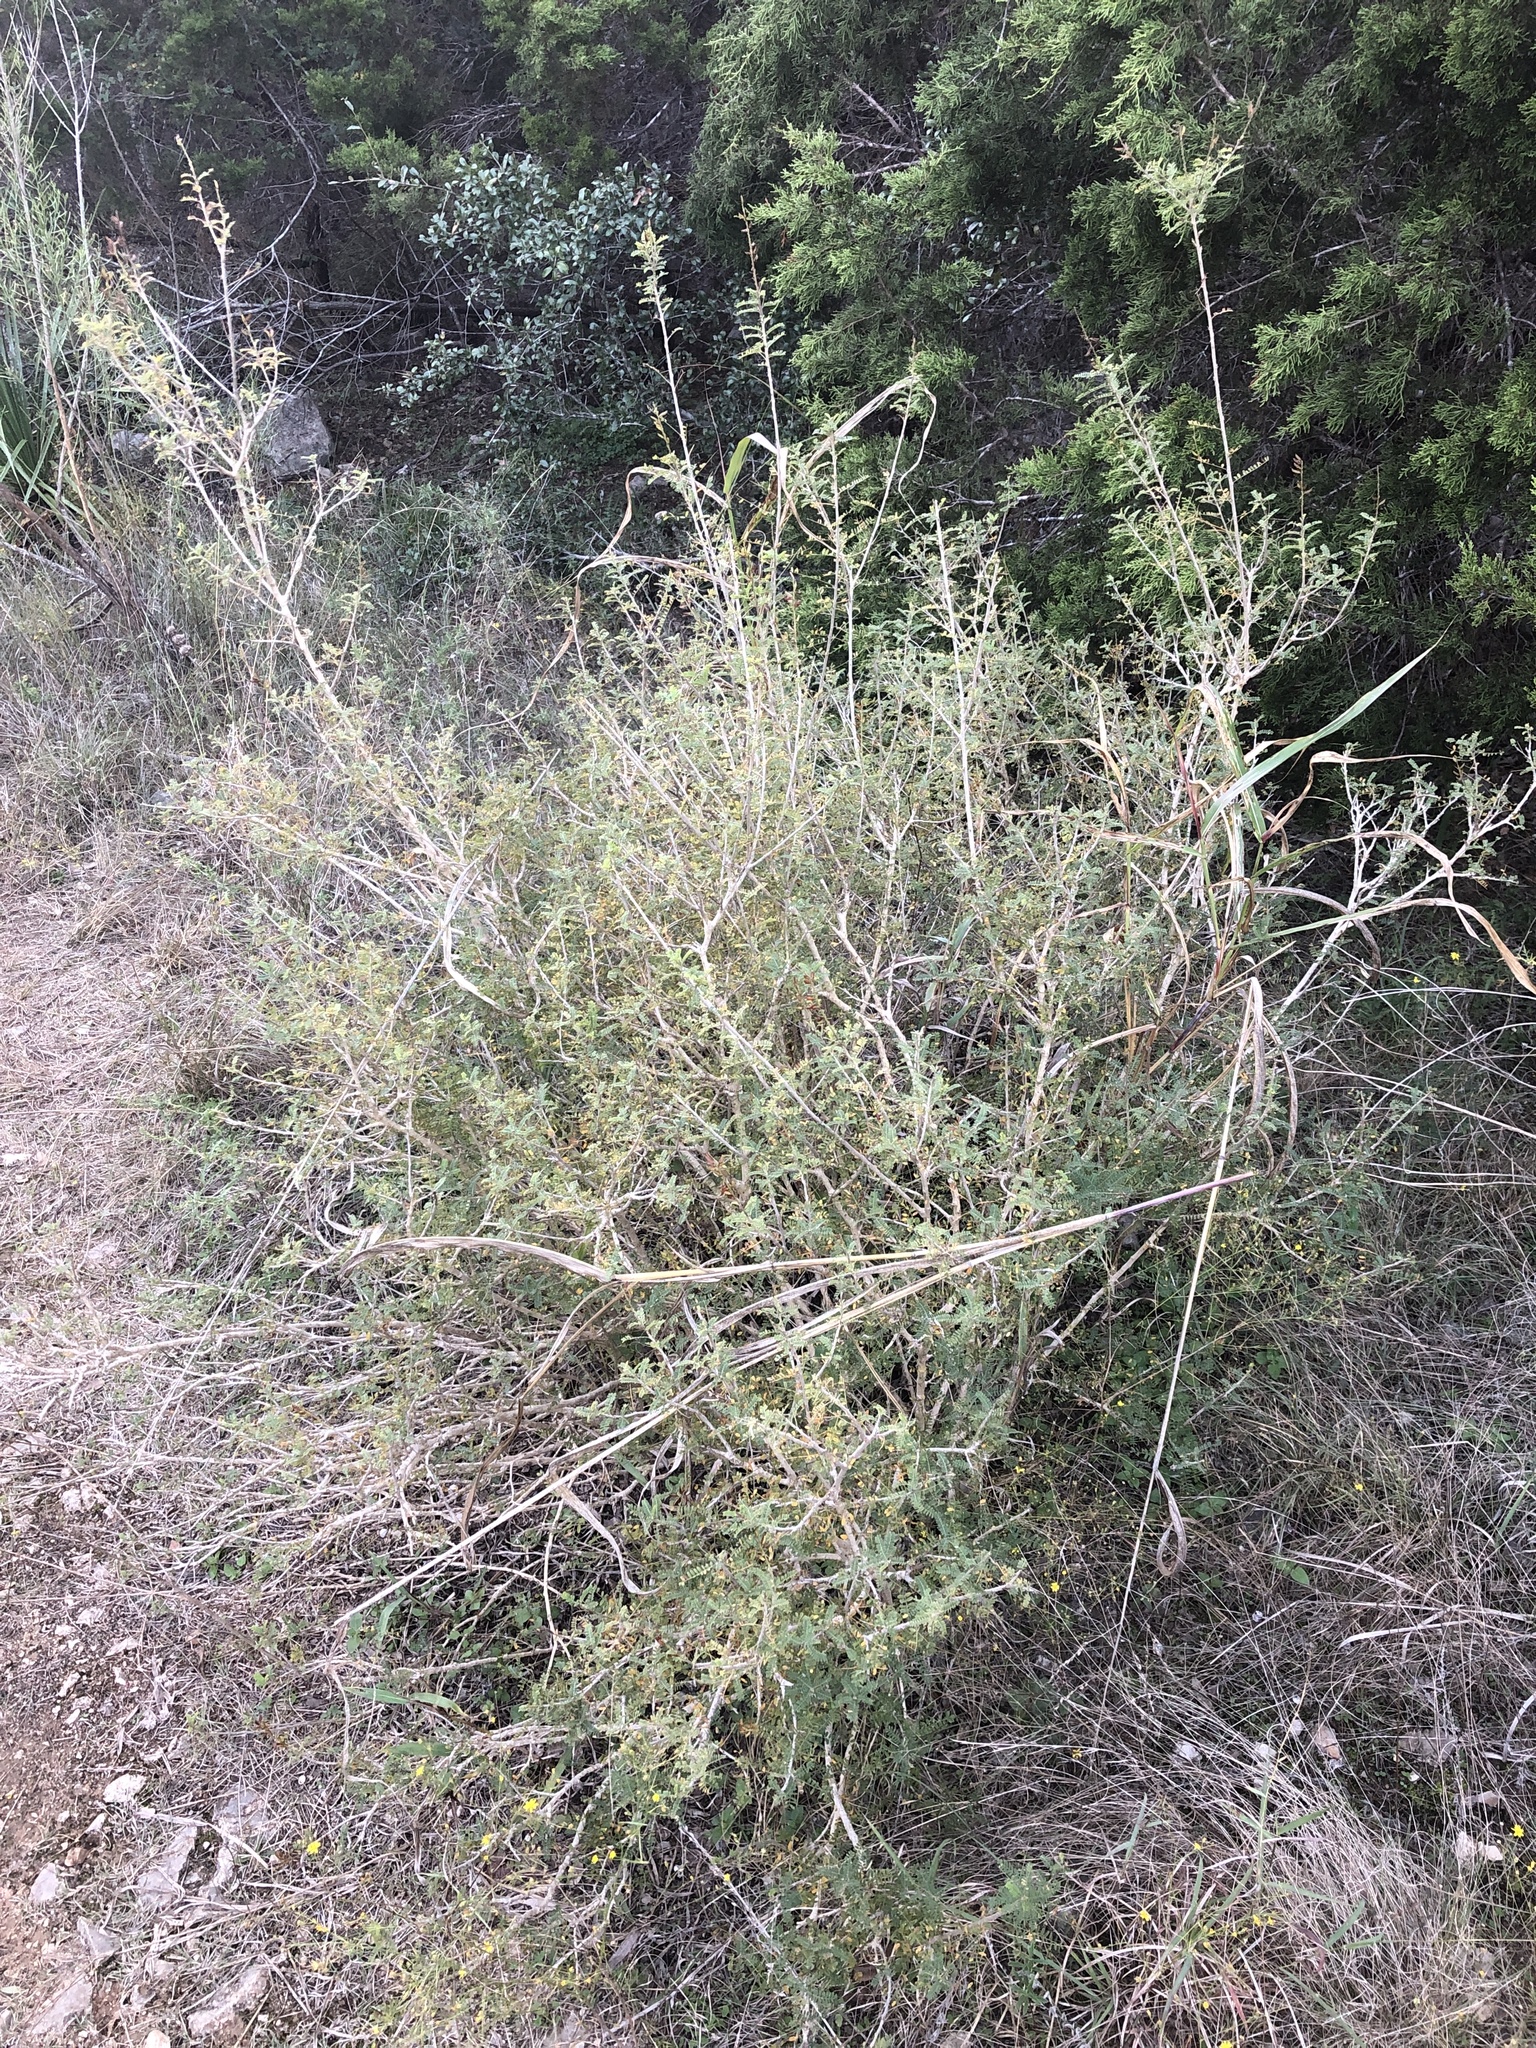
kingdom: Plantae
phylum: Tracheophyta
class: Magnoliopsida
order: Fabales
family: Fabaceae
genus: Eysenhardtia
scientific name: Eysenhardtia texana
